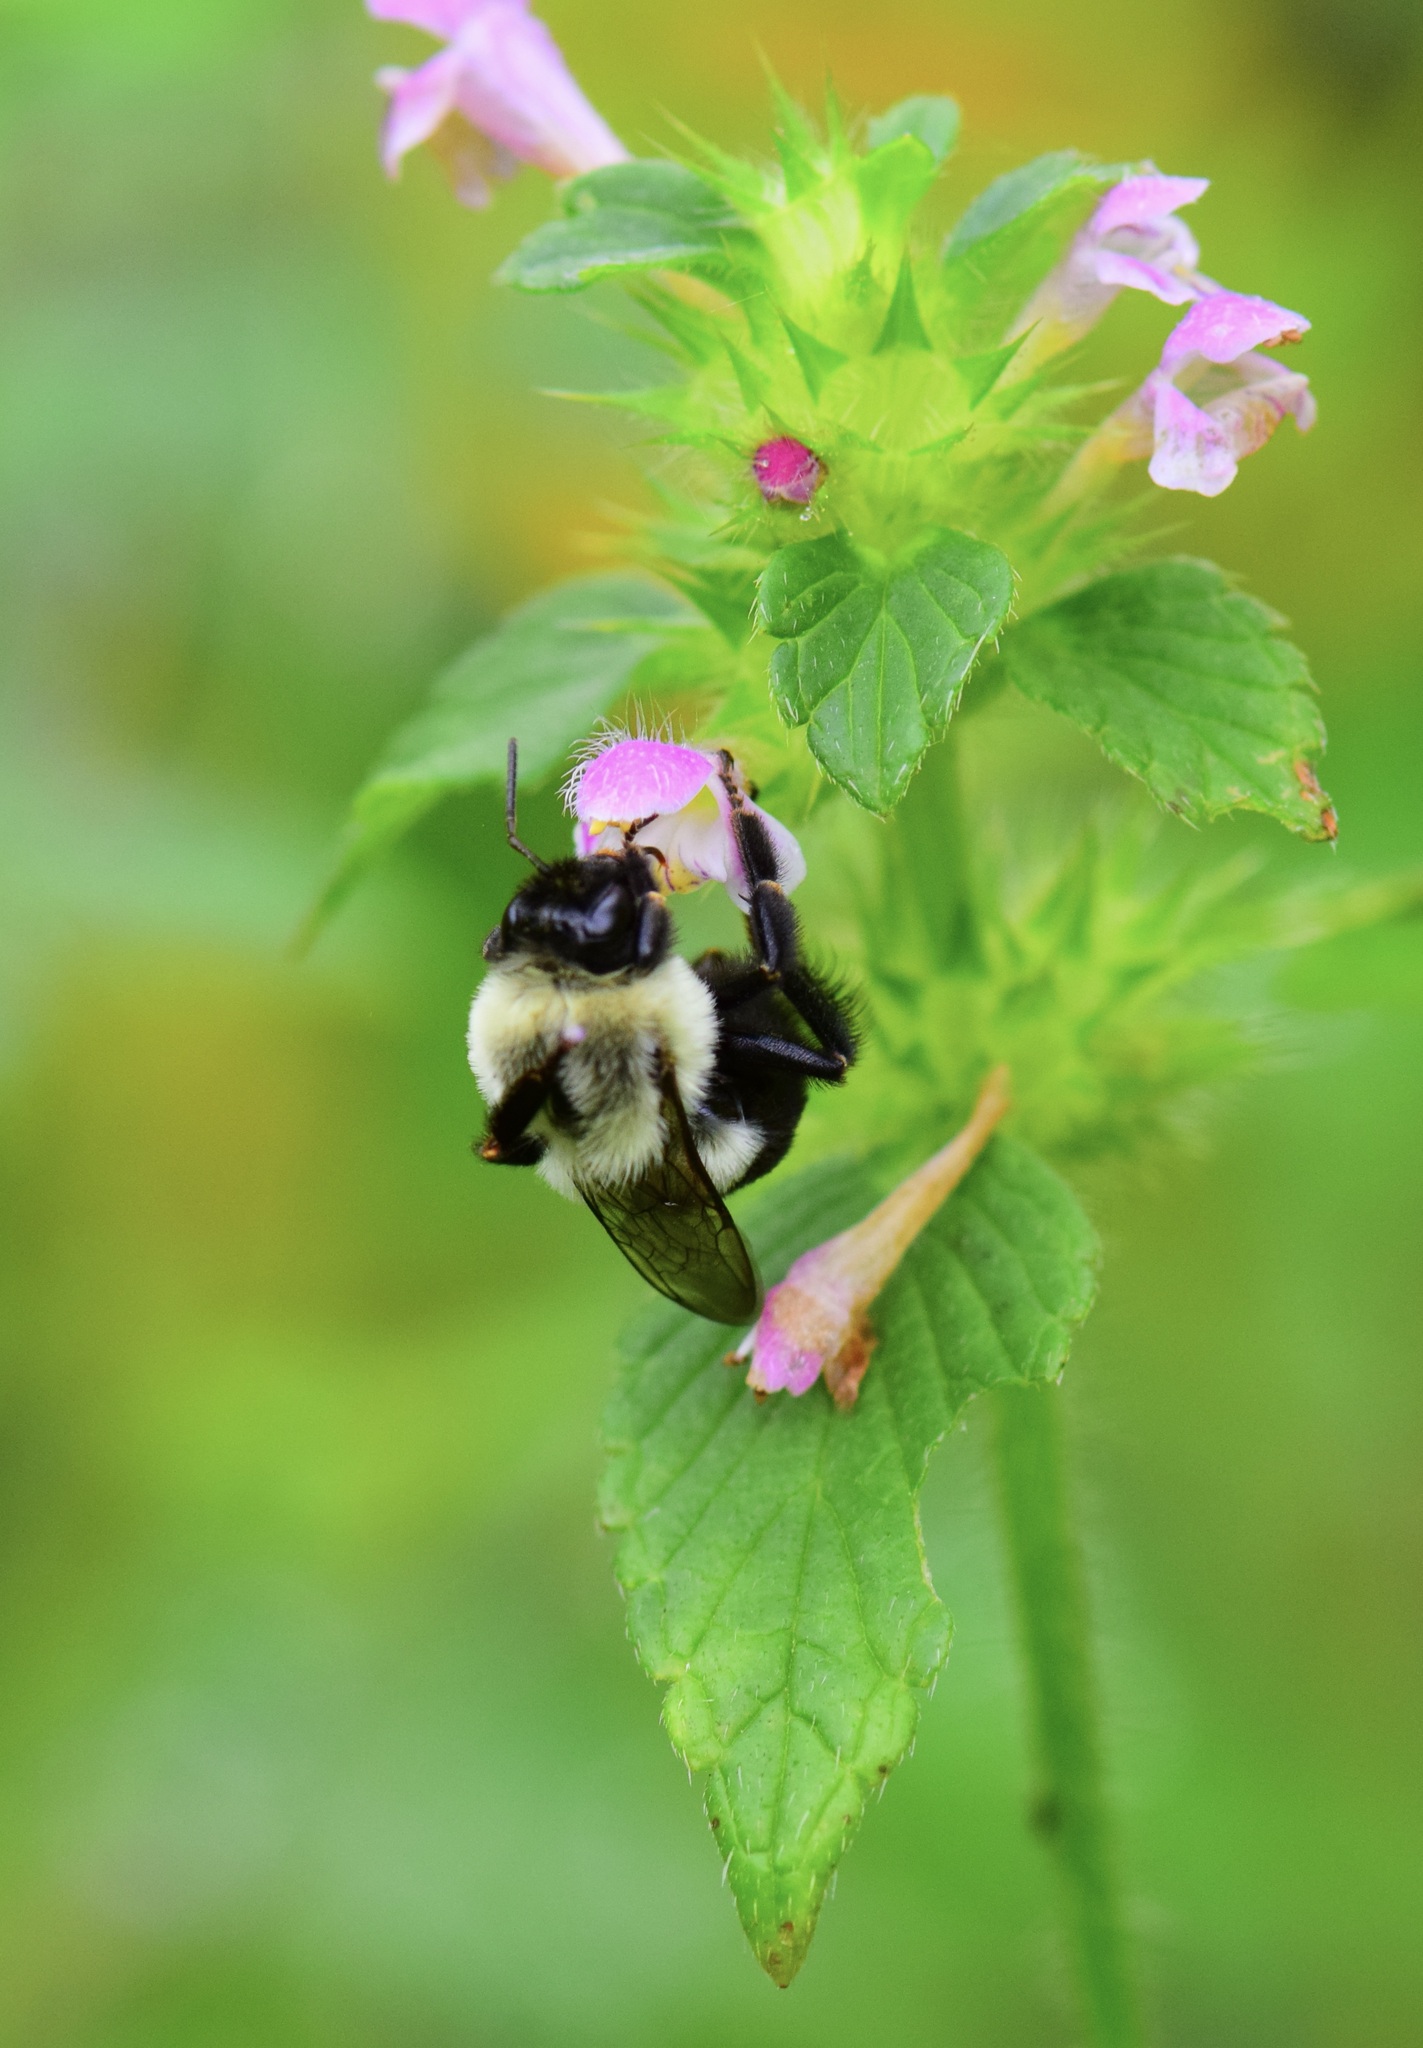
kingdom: Animalia
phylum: Arthropoda
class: Insecta
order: Hymenoptera
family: Apidae
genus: Bombus
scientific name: Bombus impatiens
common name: Common eastern bumble bee
